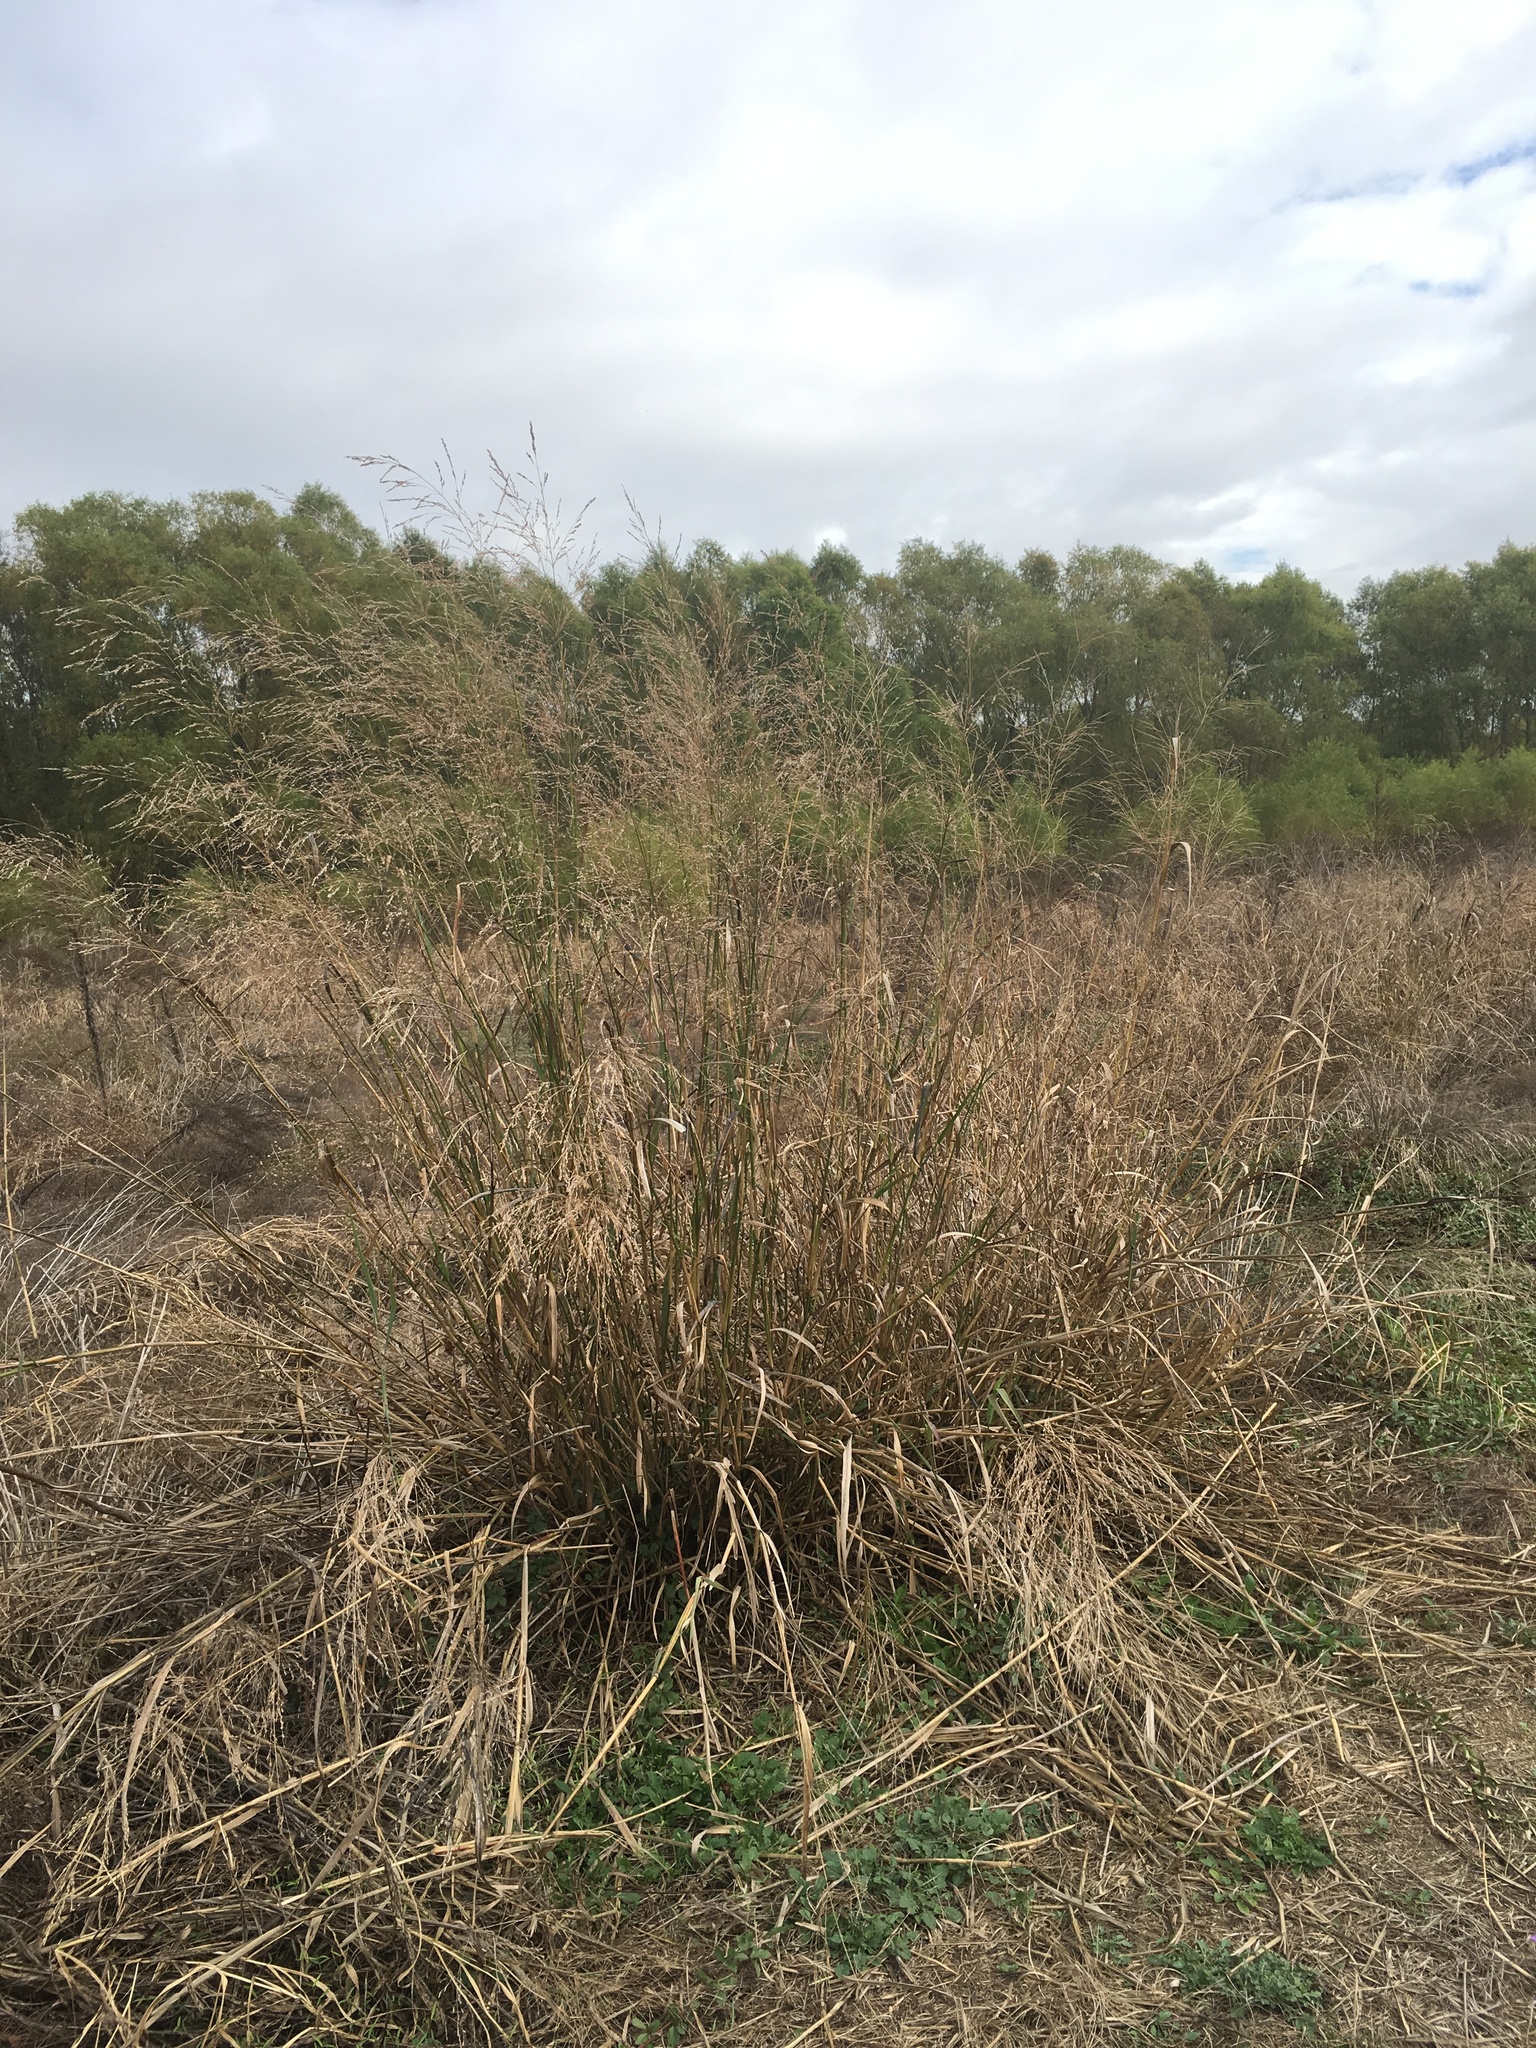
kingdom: Plantae
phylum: Tracheophyta
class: Liliopsida
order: Poales
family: Poaceae
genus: Panicum
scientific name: Panicum virgatum
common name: Switchgrass
